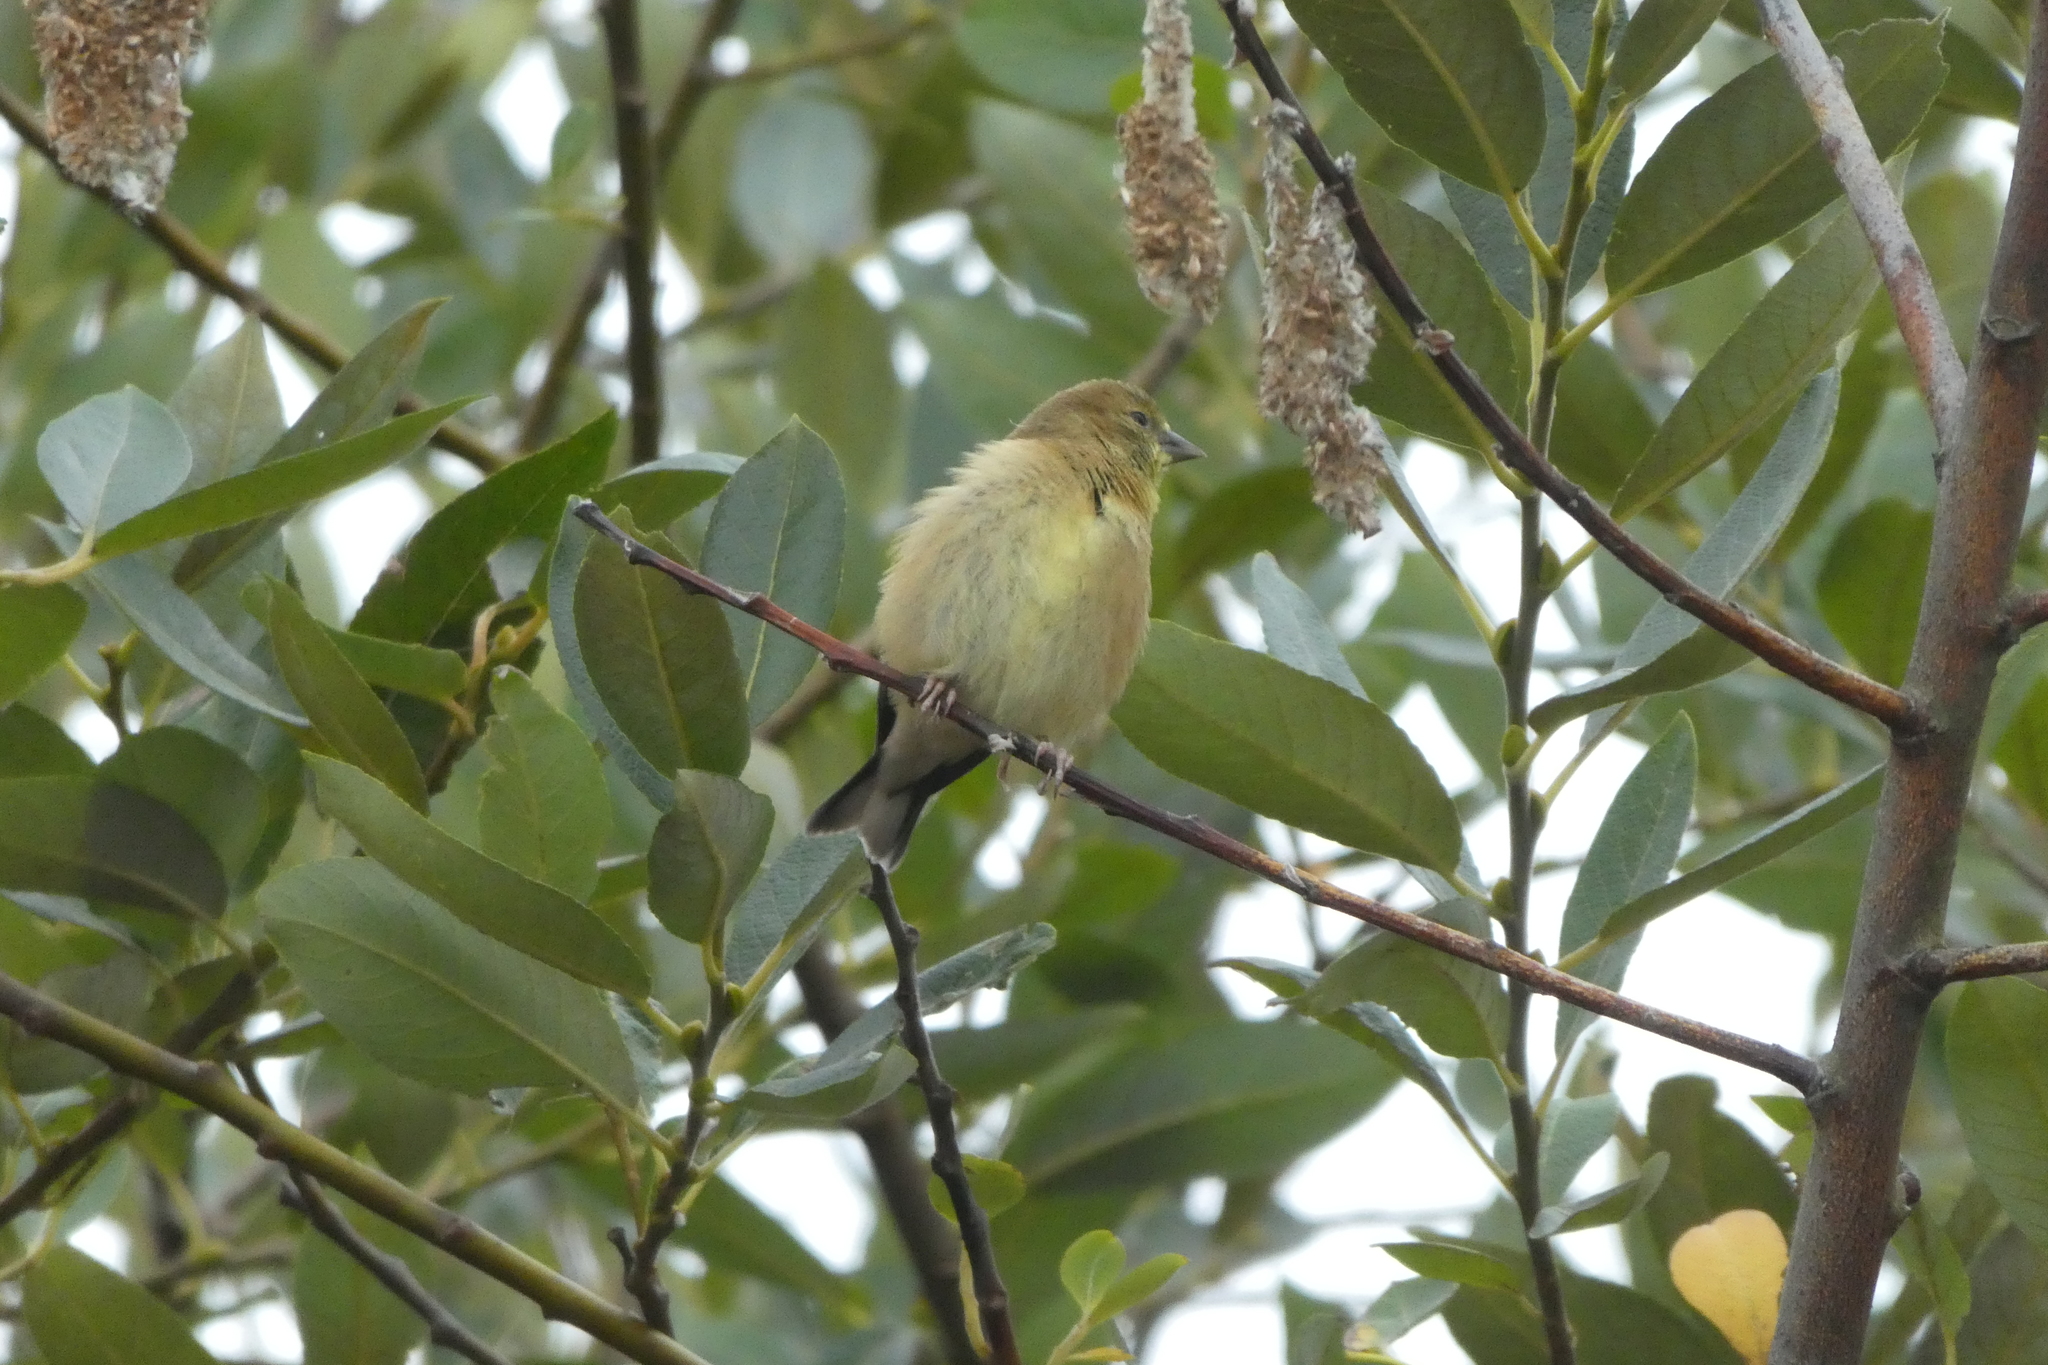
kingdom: Animalia
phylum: Chordata
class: Aves
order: Passeriformes
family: Fringillidae
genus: Spinus
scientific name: Spinus tristis
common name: American goldfinch
